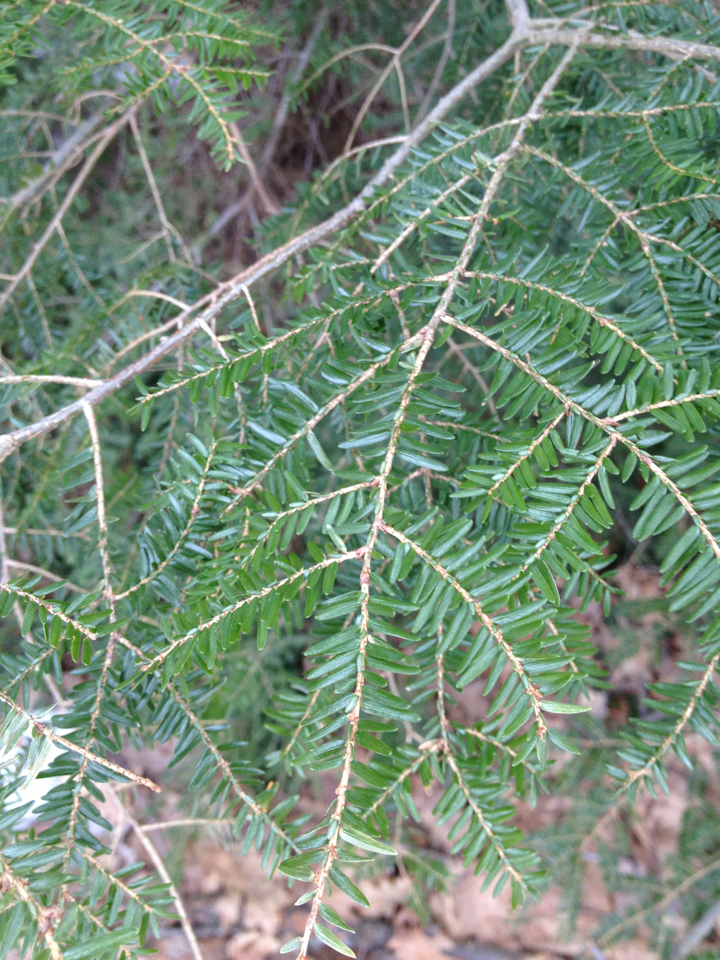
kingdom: Plantae
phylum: Tracheophyta
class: Pinopsida
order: Pinales
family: Pinaceae
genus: Tsuga
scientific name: Tsuga canadensis
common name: Eastern hemlock
